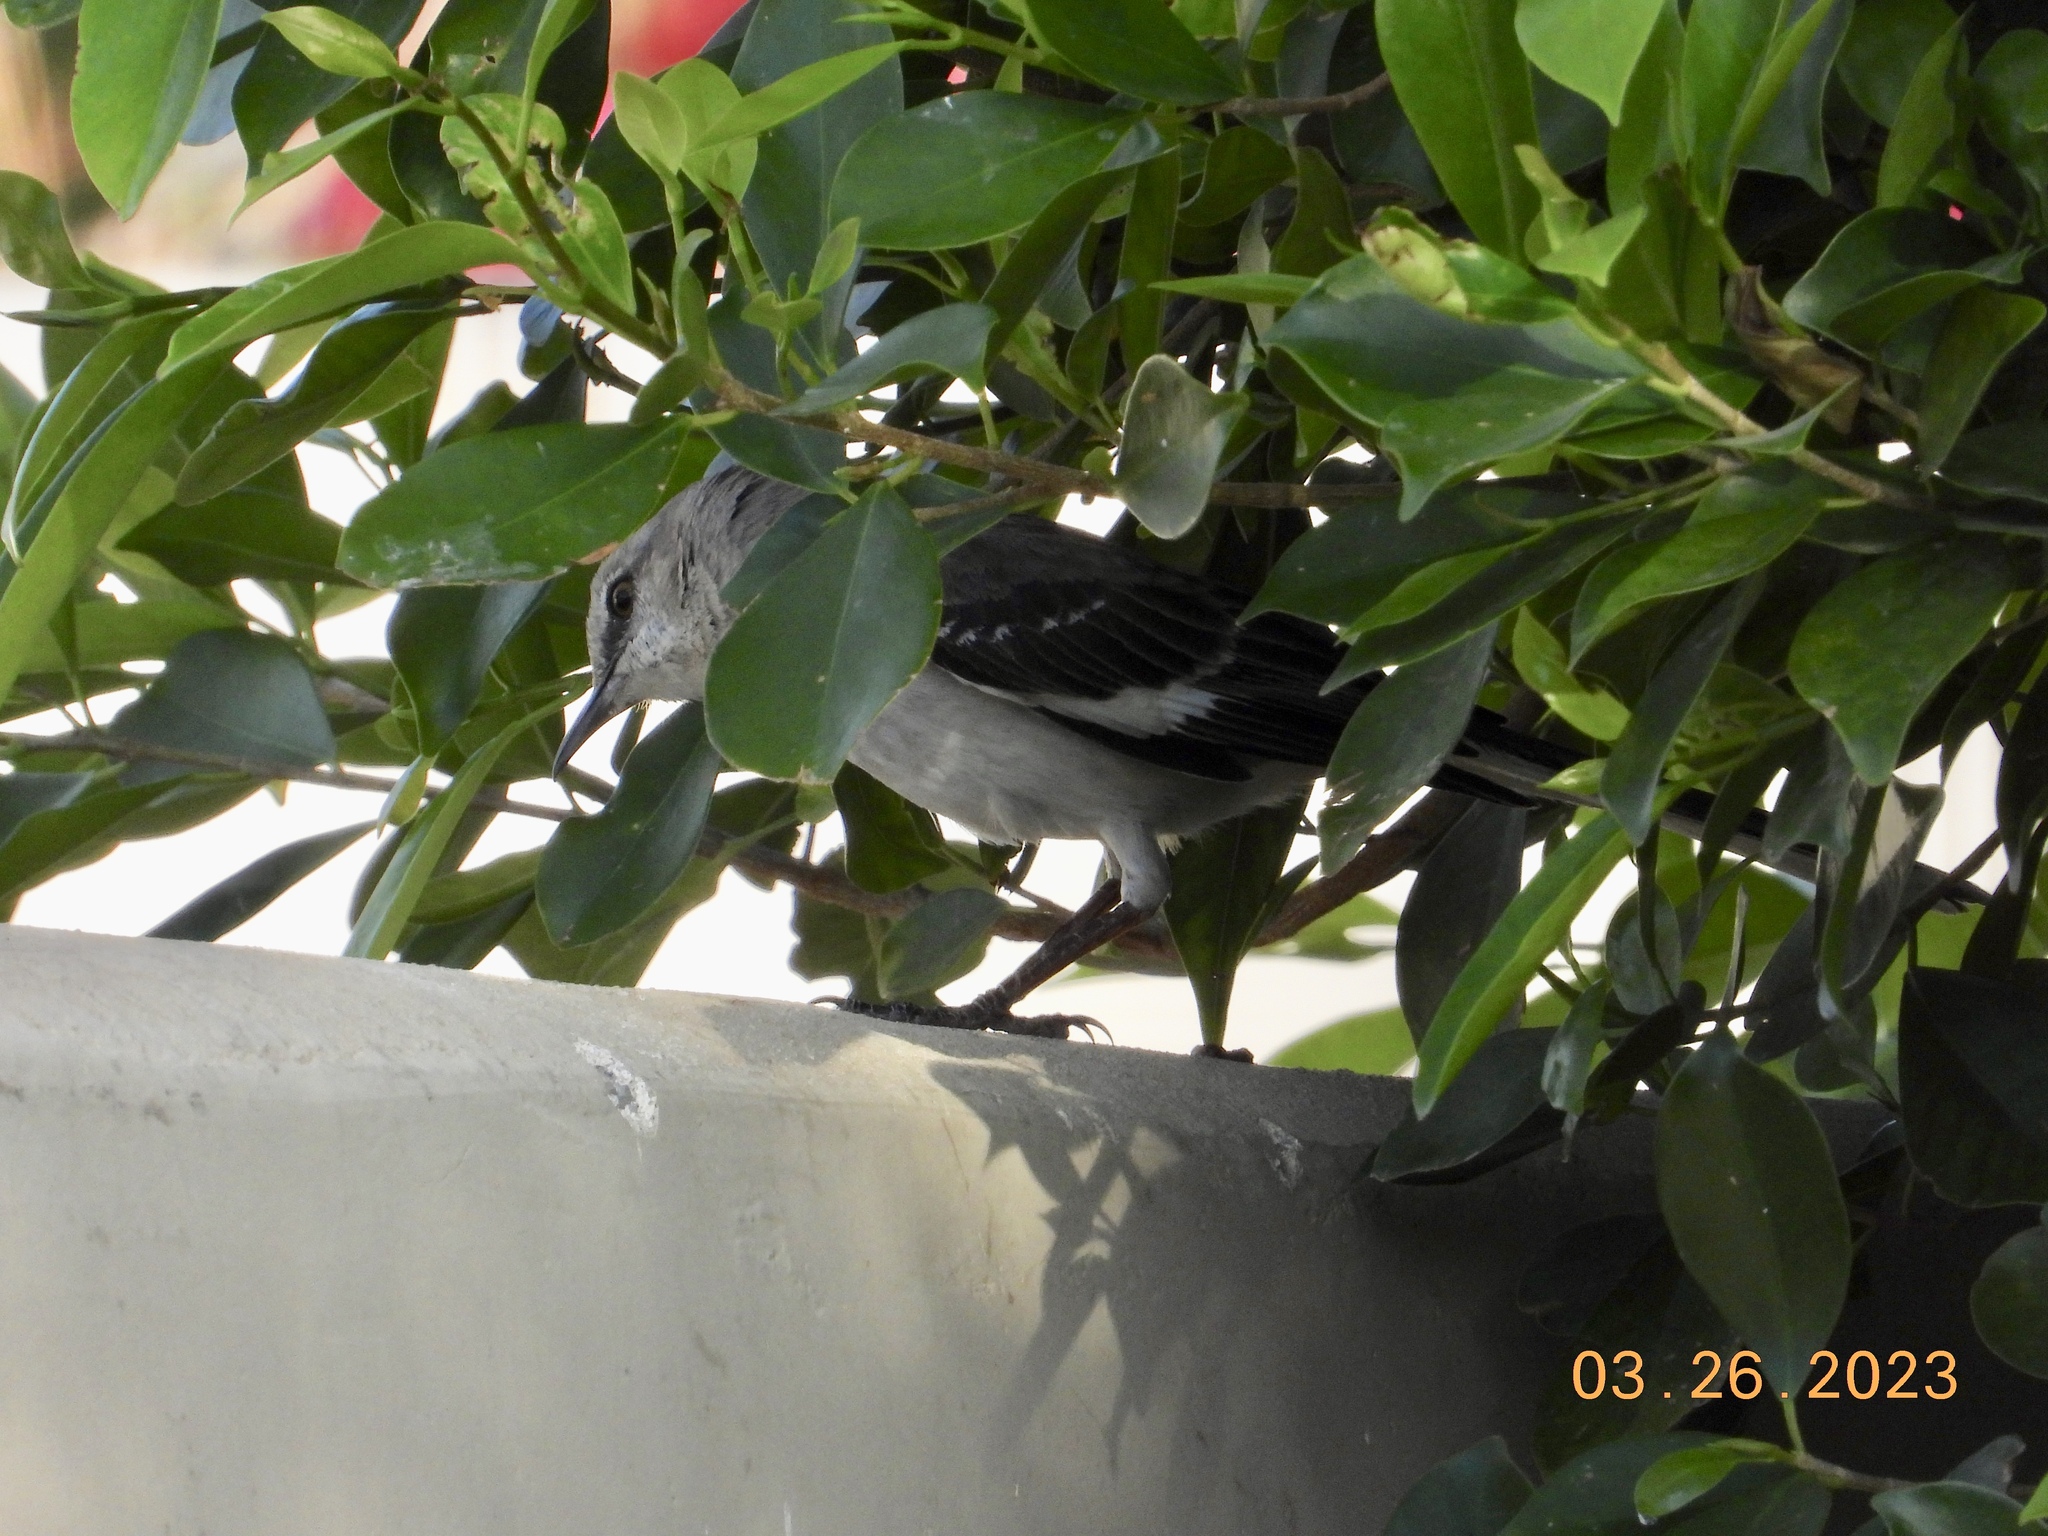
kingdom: Animalia
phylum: Chordata
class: Aves
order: Passeriformes
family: Mimidae
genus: Mimus
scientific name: Mimus polyglottos
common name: Northern mockingbird
